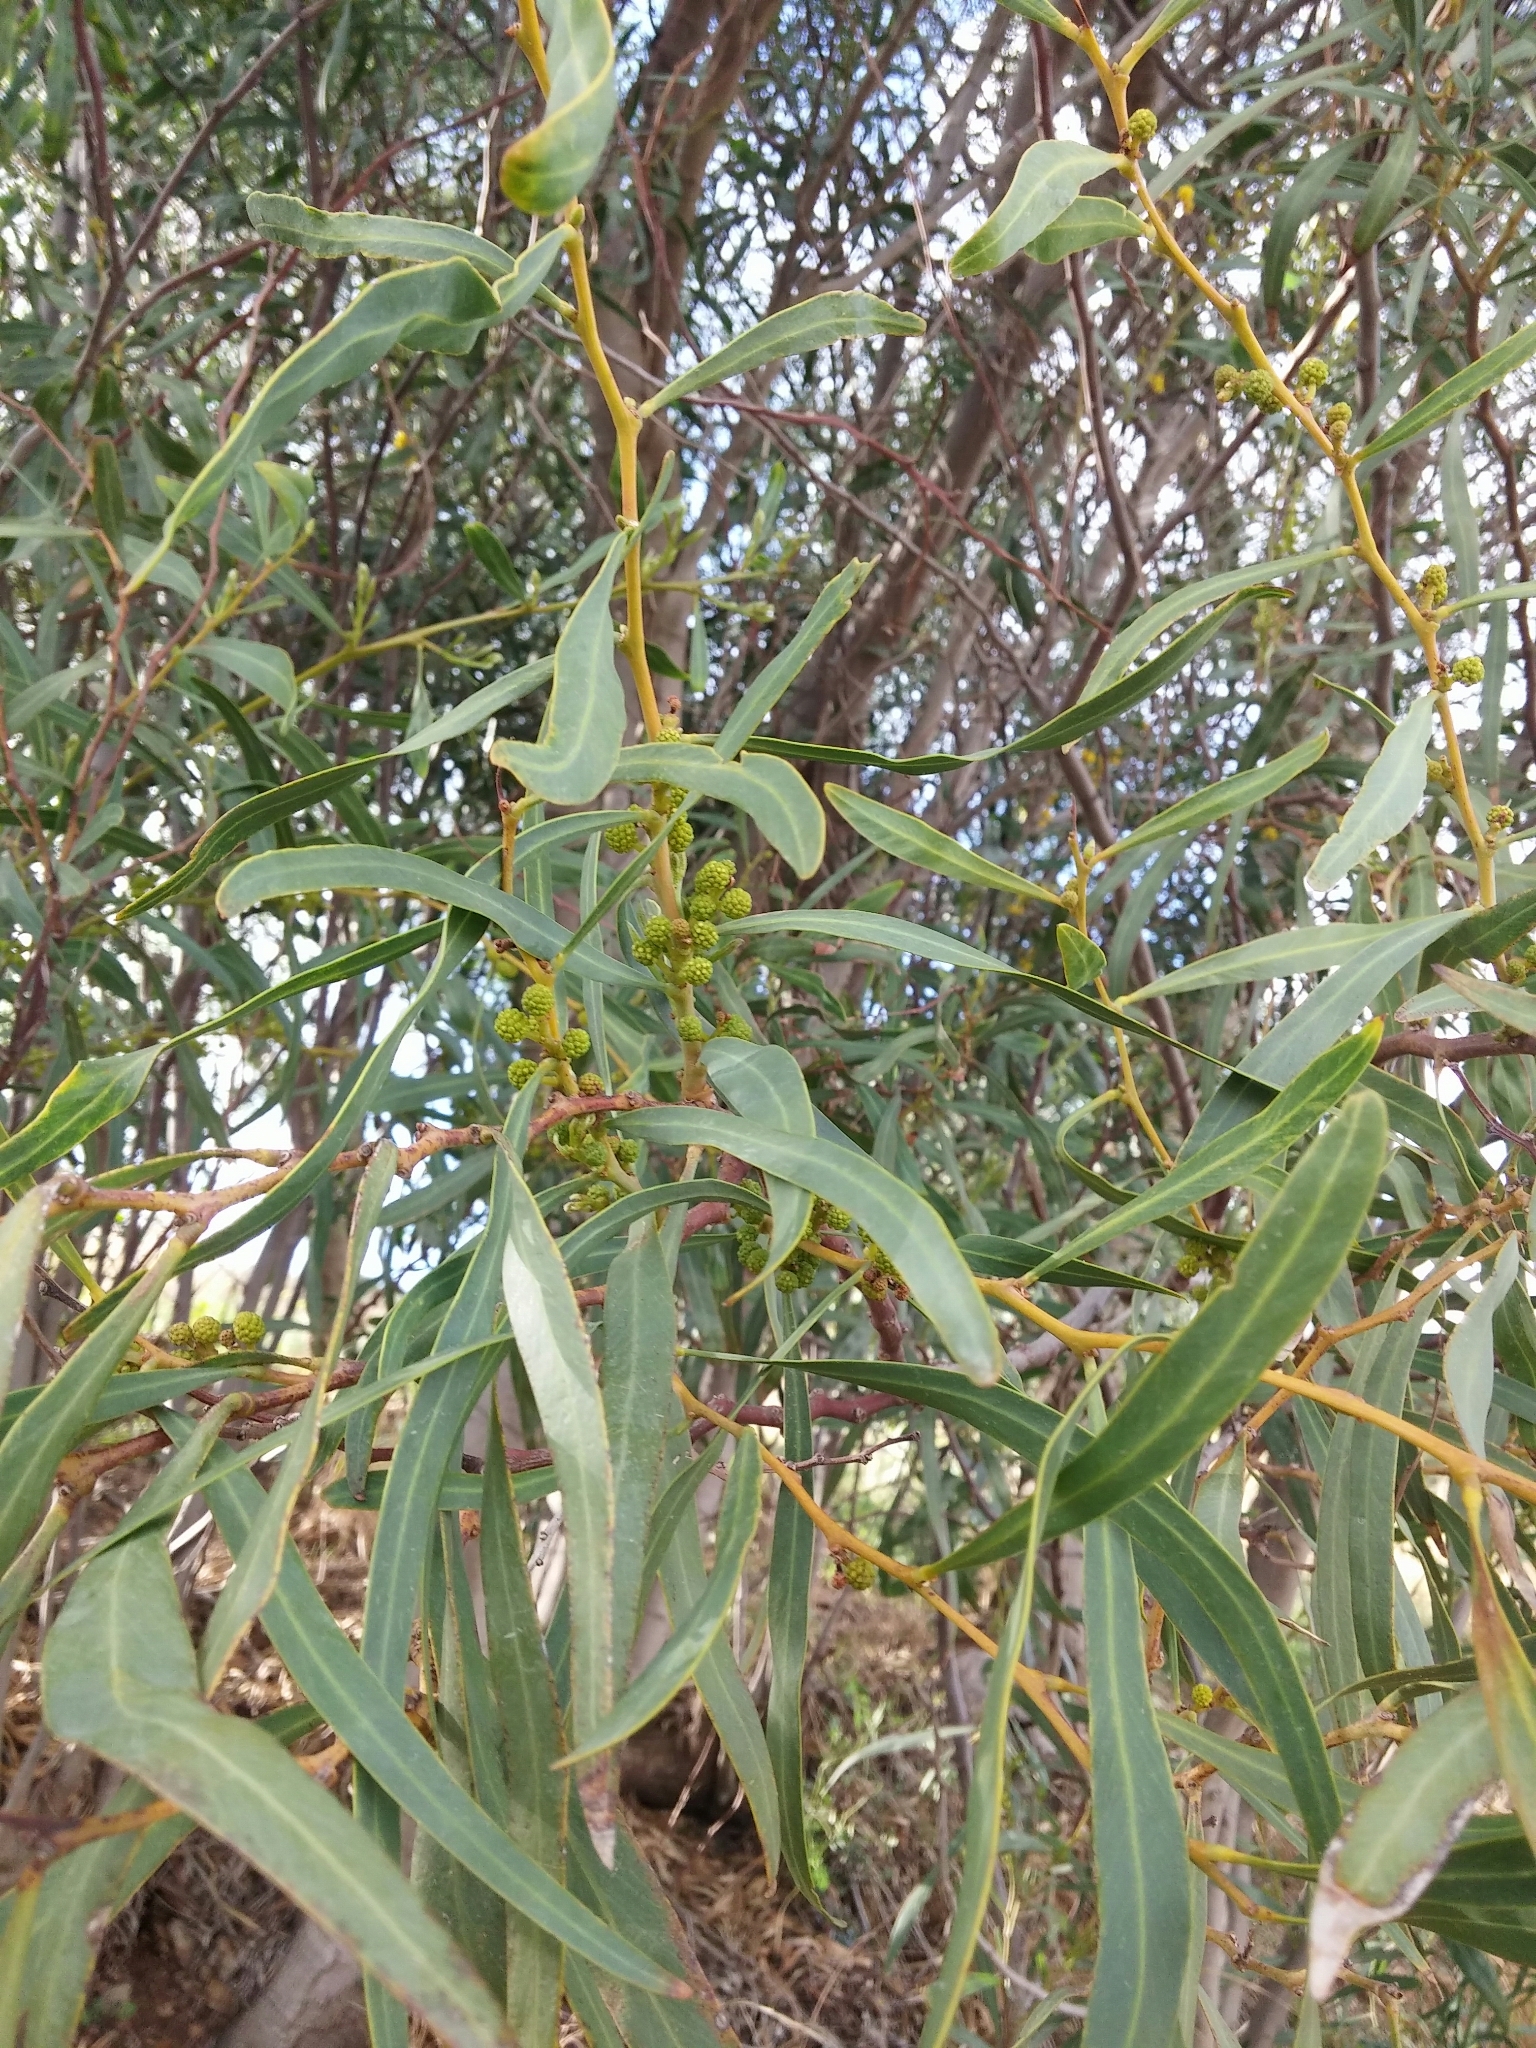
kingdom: Plantae
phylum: Tracheophyta
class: Magnoliopsida
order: Fabales
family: Fabaceae
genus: Acacia
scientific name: Acacia retinodes
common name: Silver wattle
